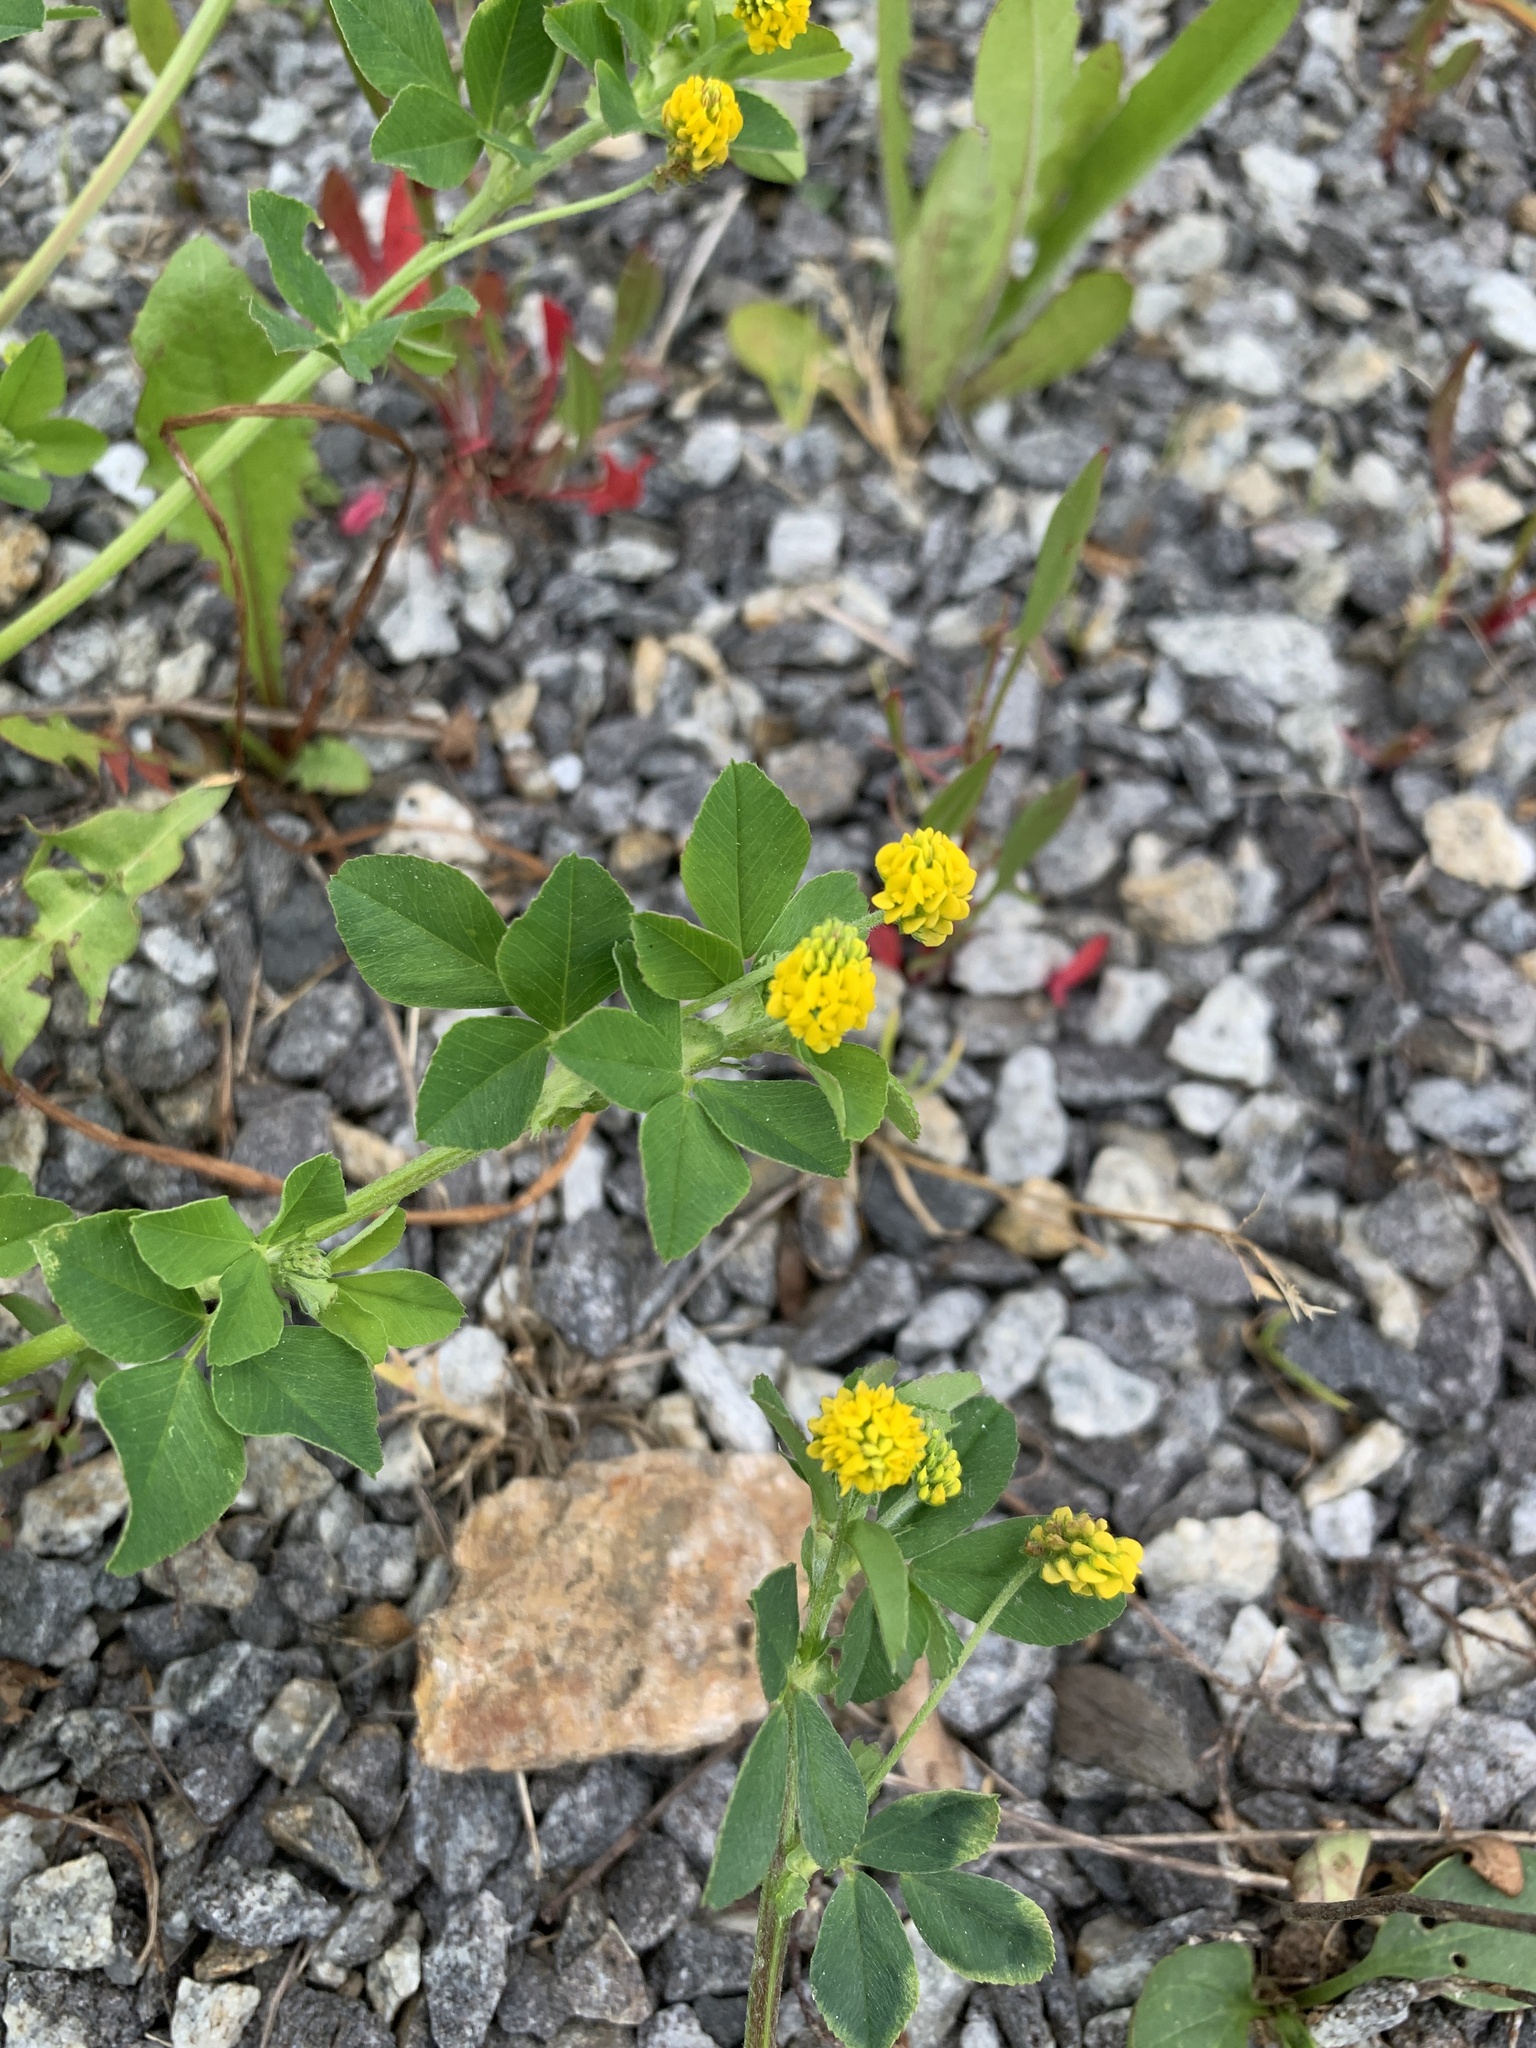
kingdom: Plantae
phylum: Tracheophyta
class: Magnoliopsida
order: Fabales
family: Fabaceae
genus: Medicago
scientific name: Medicago lupulina
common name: Black medick
